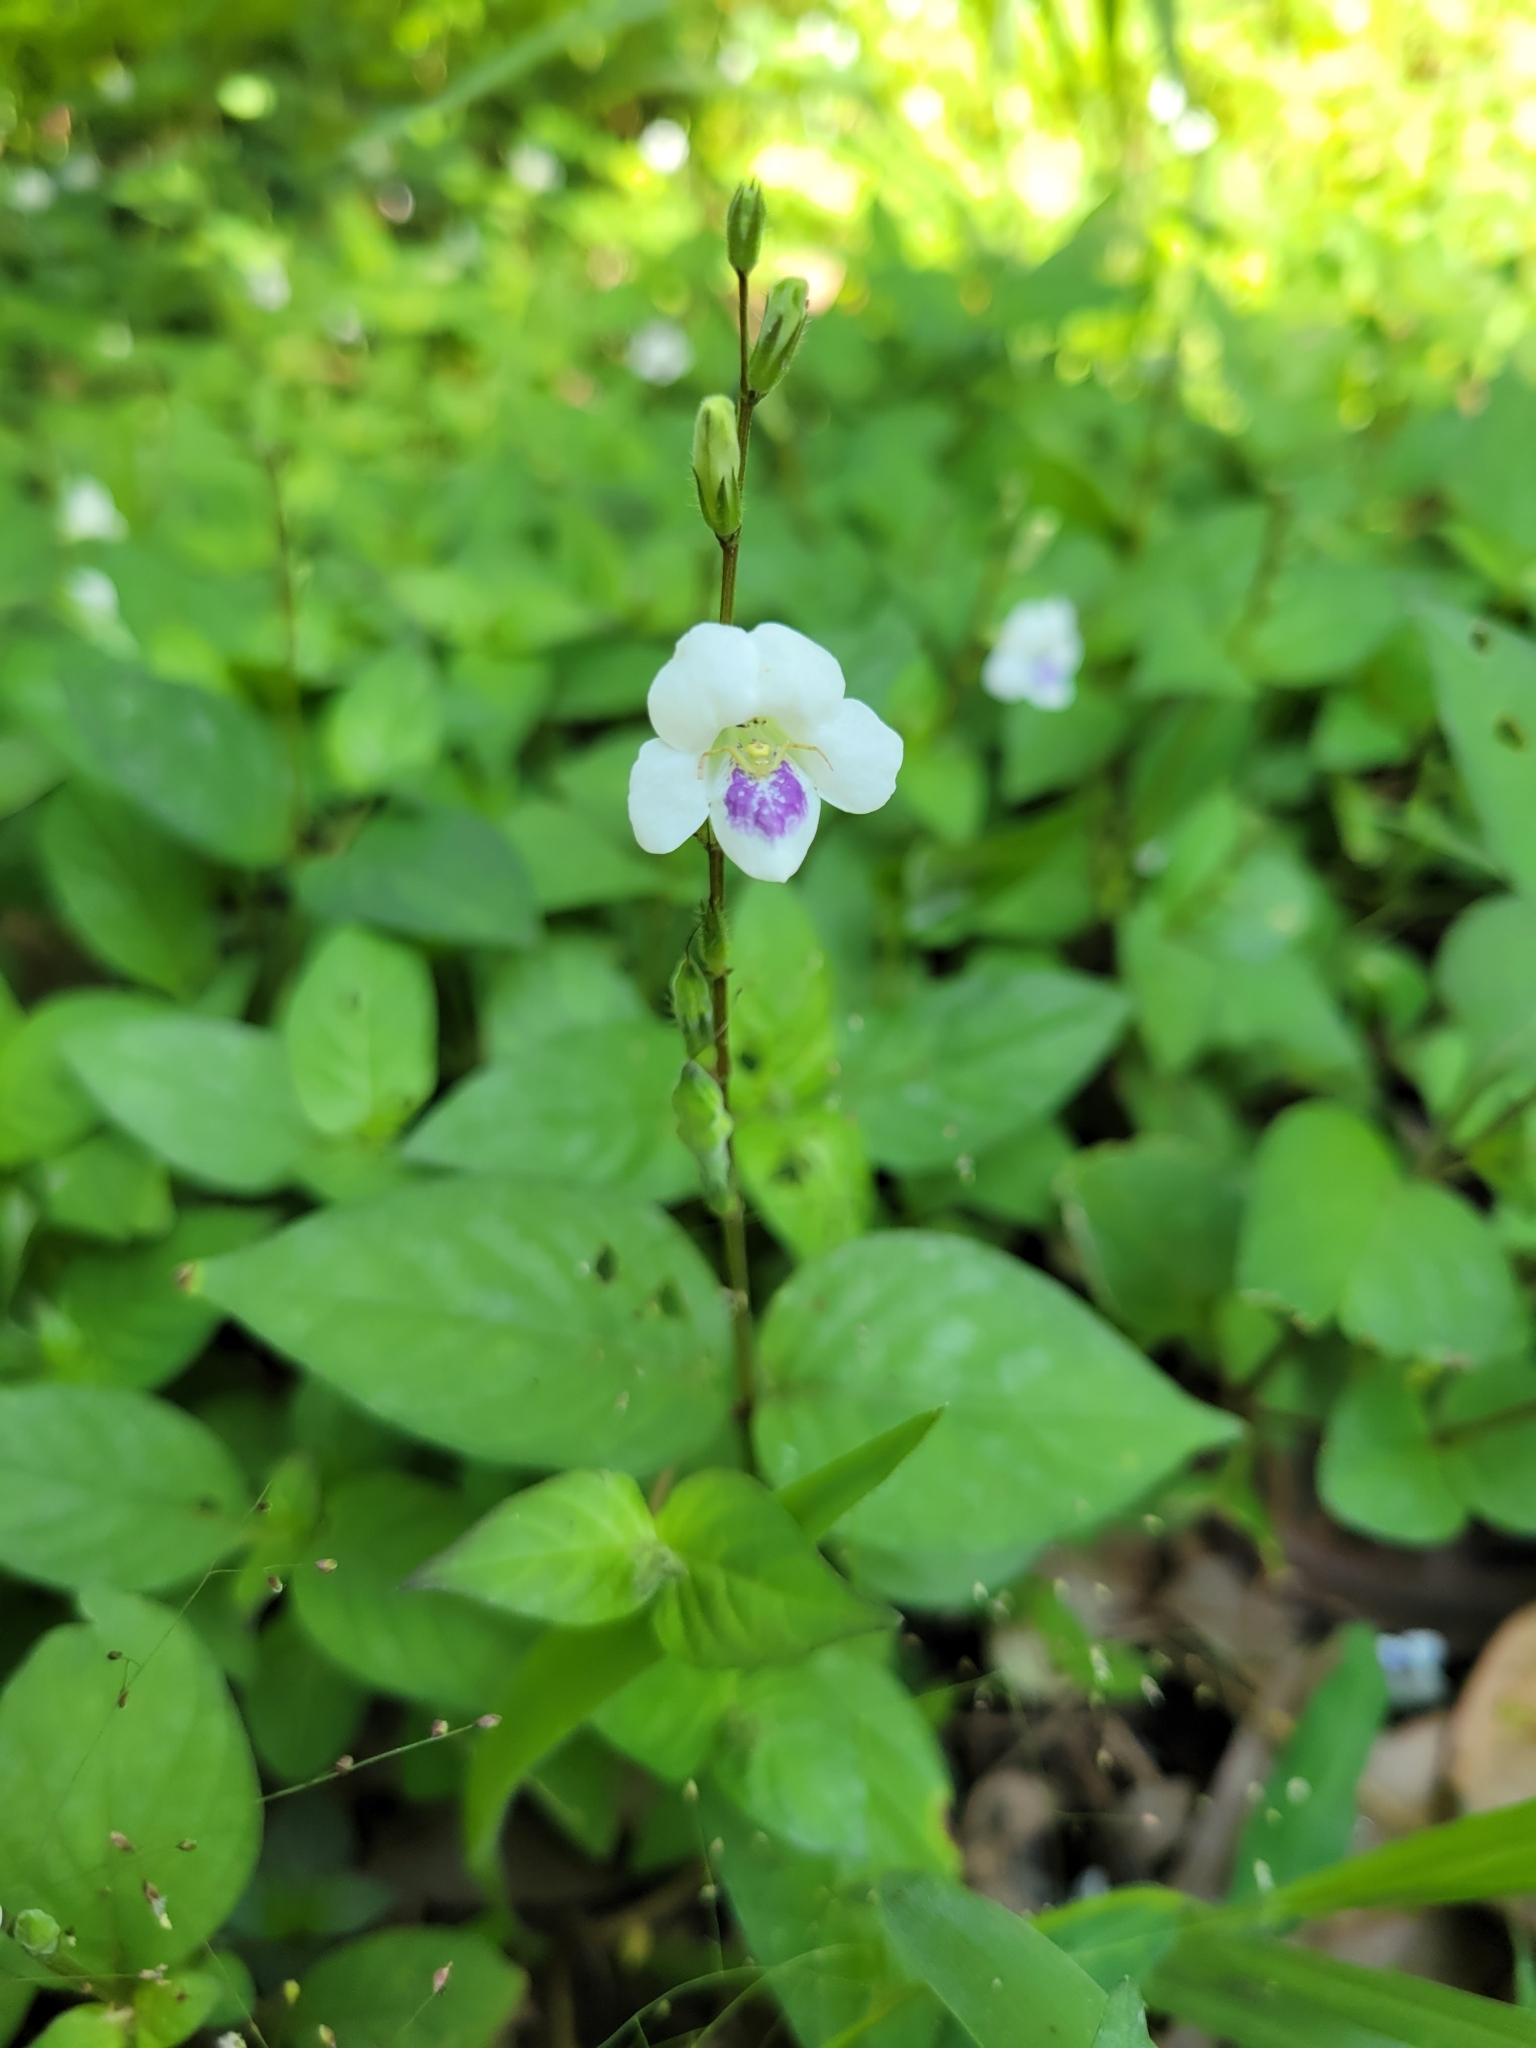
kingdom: Plantae
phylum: Tracheophyta
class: Magnoliopsida
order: Lamiales
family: Acanthaceae
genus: Asystasia
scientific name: Asystasia intrusa
